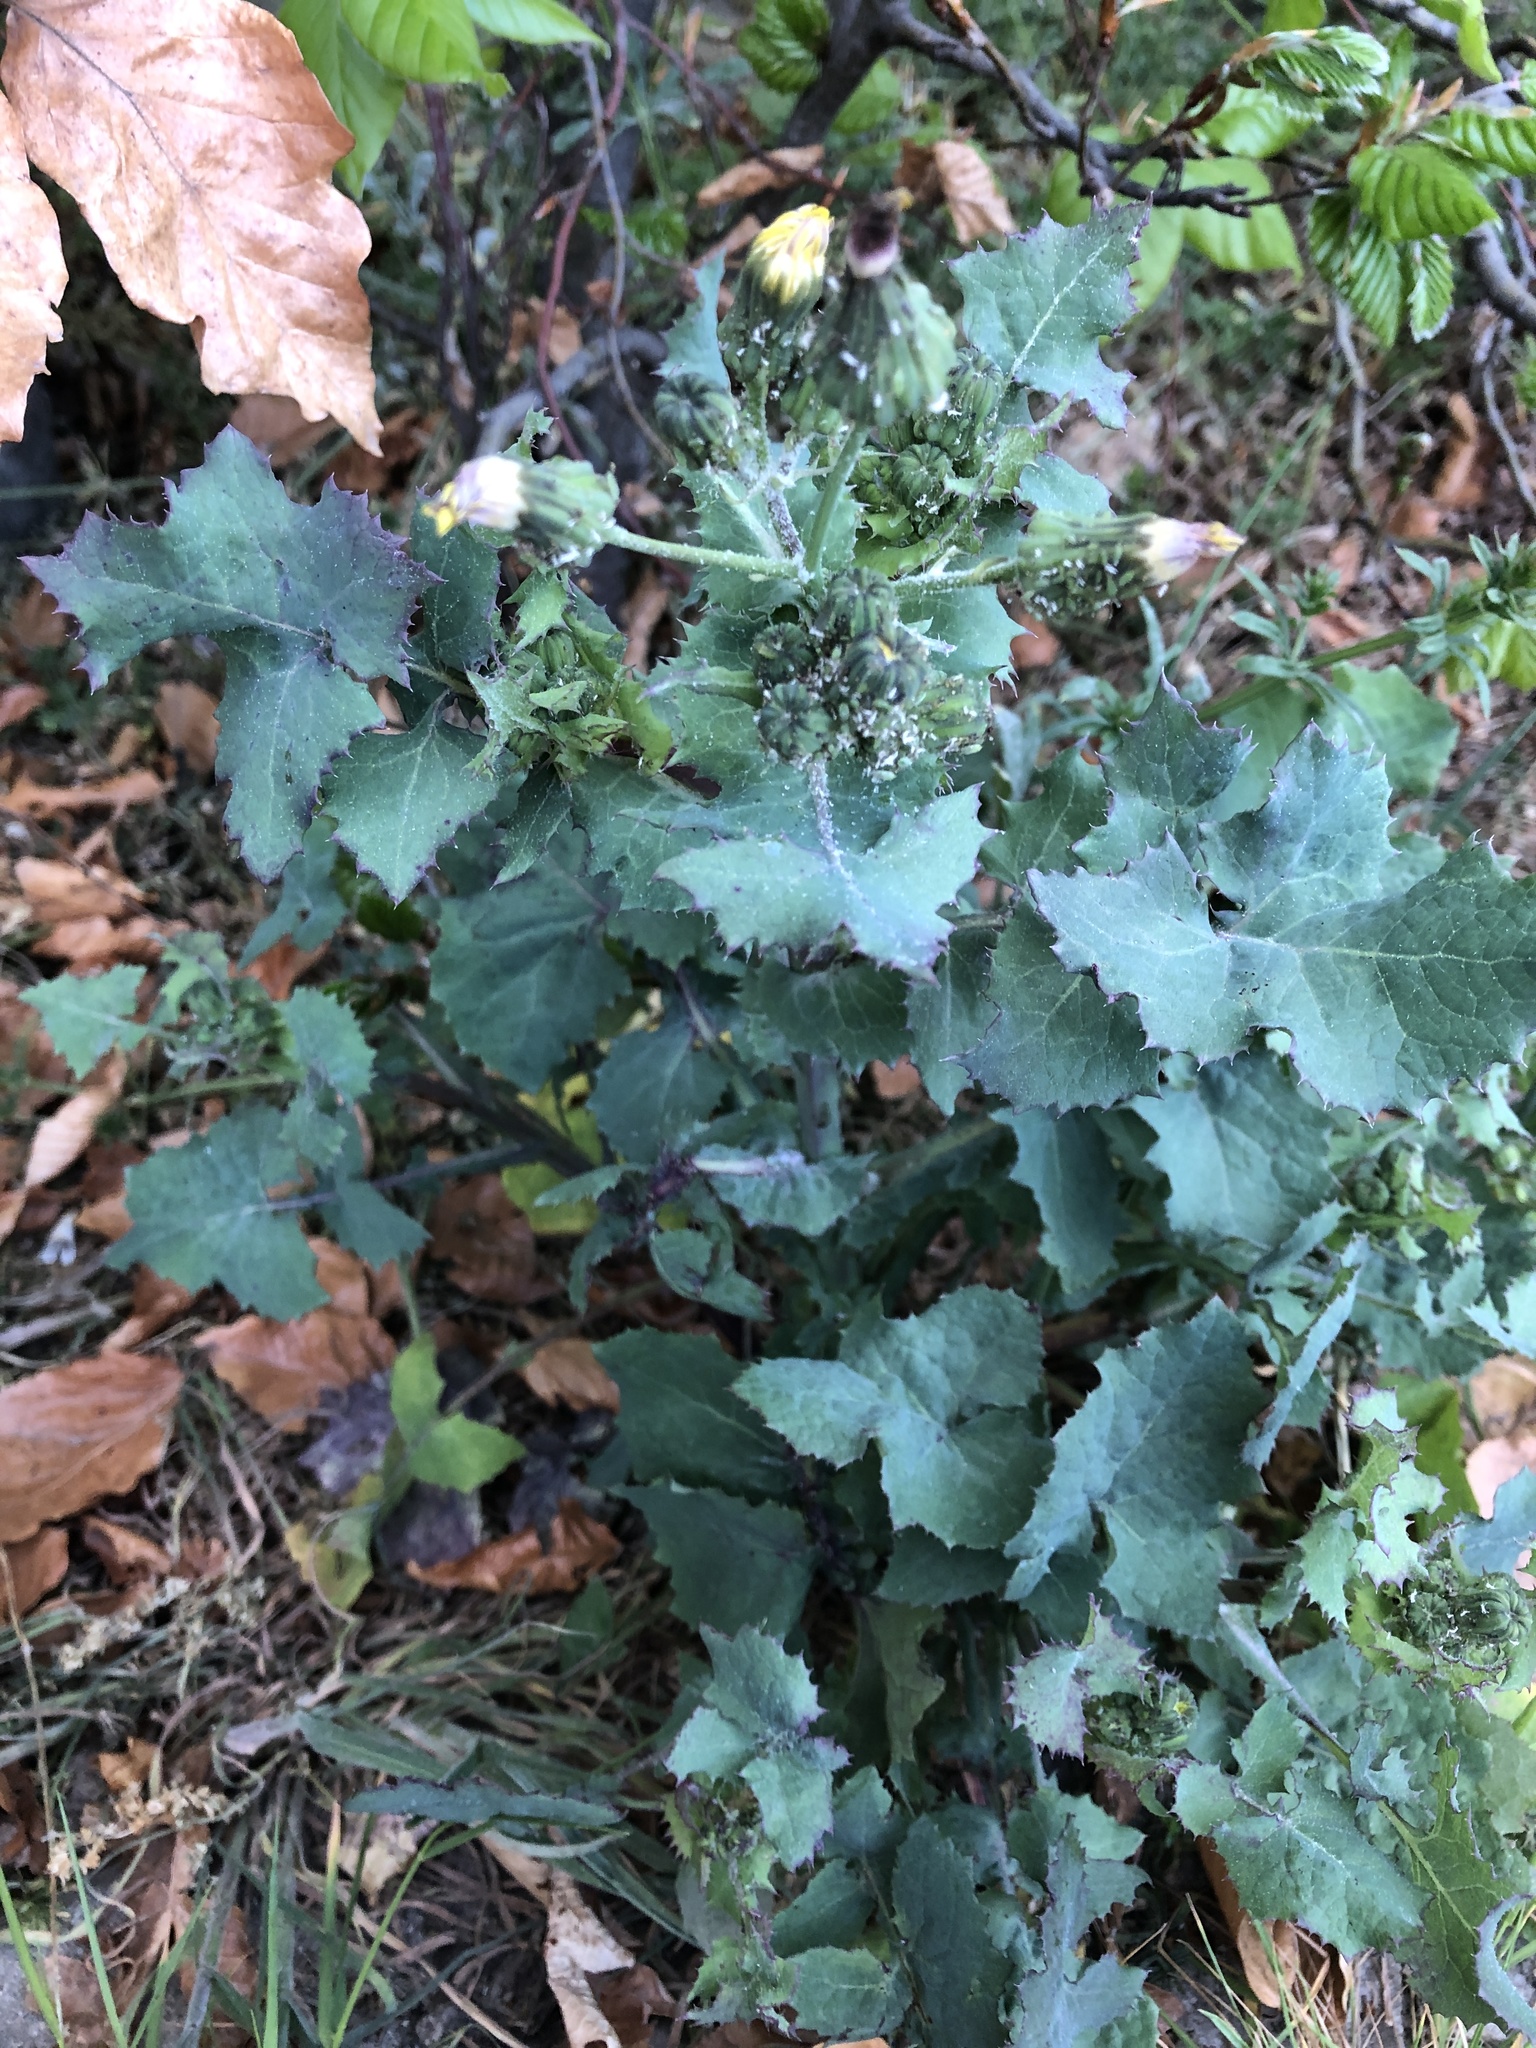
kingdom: Plantae
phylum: Tracheophyta
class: Magnoliopsida
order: Asterales
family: Asteraceae
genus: Sonchus
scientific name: Sonchus oleraceus
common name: Common sowthistle
